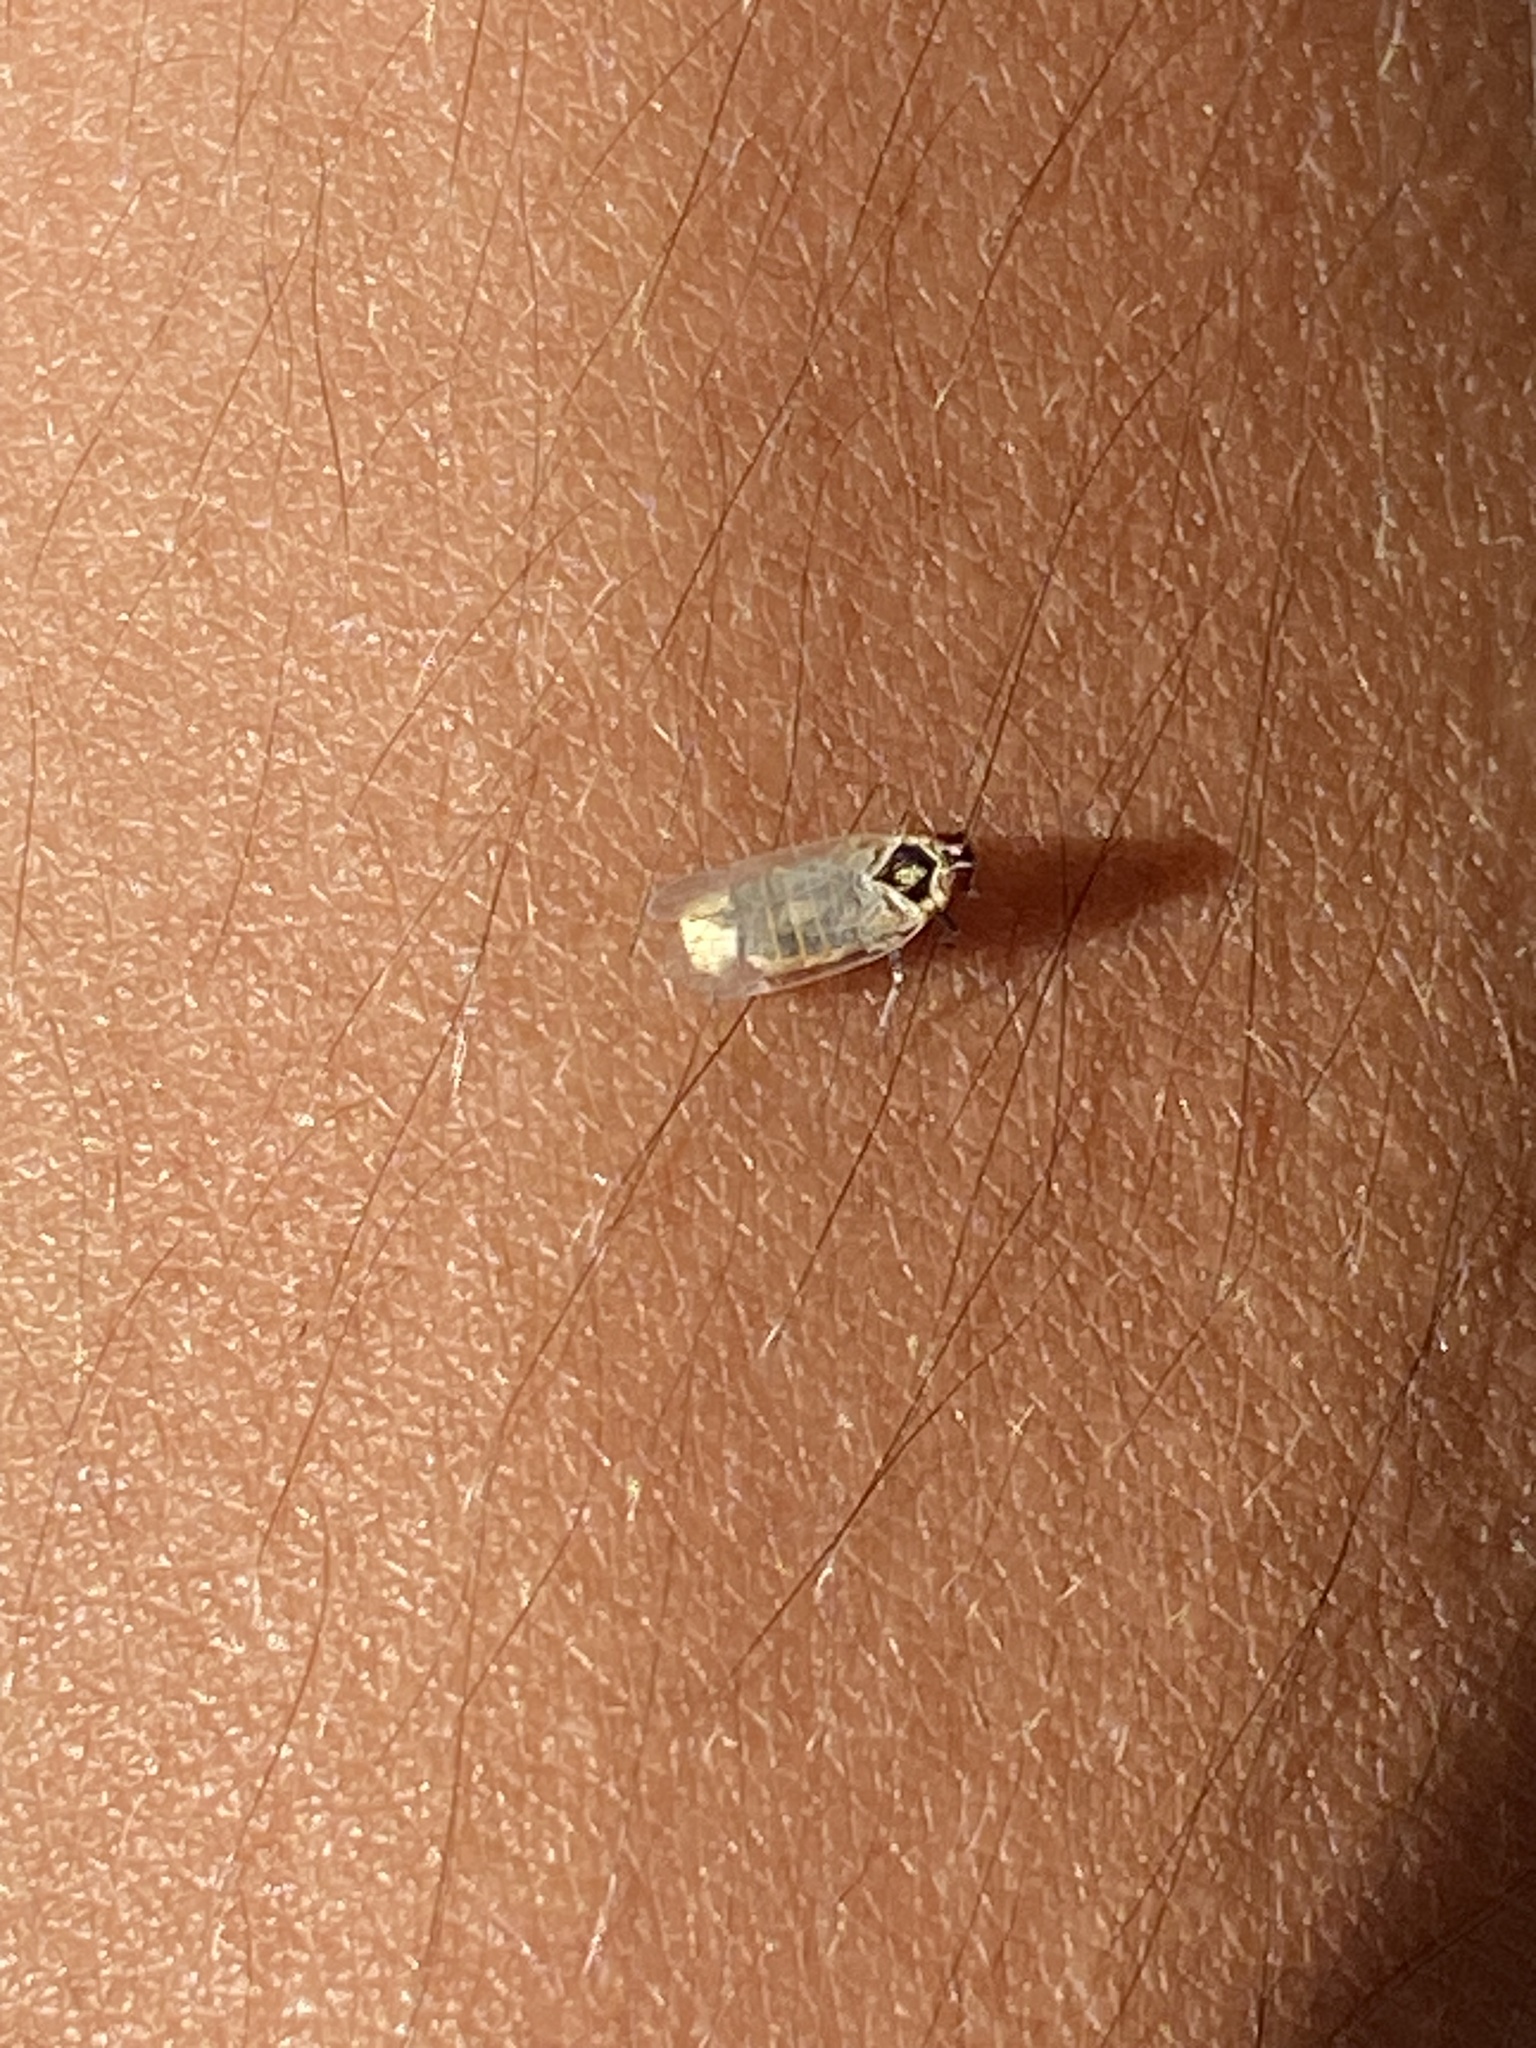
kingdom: Animalia
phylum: Arthropoda
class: Insecta
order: Hemiptera
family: Cixiidae
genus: Hyalesthes
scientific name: Hyalesthes obsoletus
